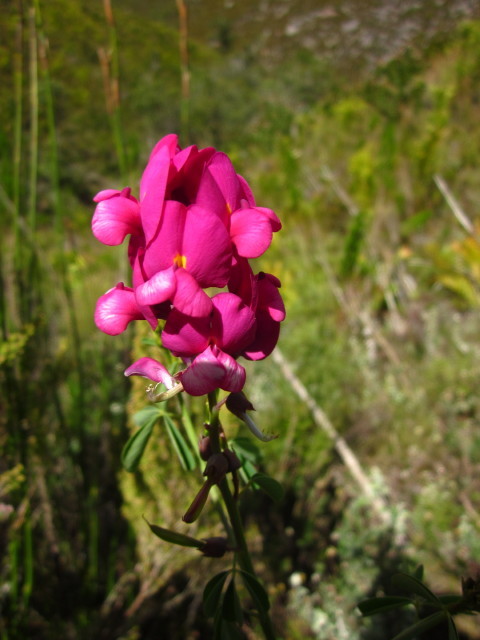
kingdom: Plantae
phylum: Tracheophyta
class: Magnoliopsida
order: Fabales
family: Fabaceae
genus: Hypocalyptus
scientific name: Hypocalyptus coluteoides
